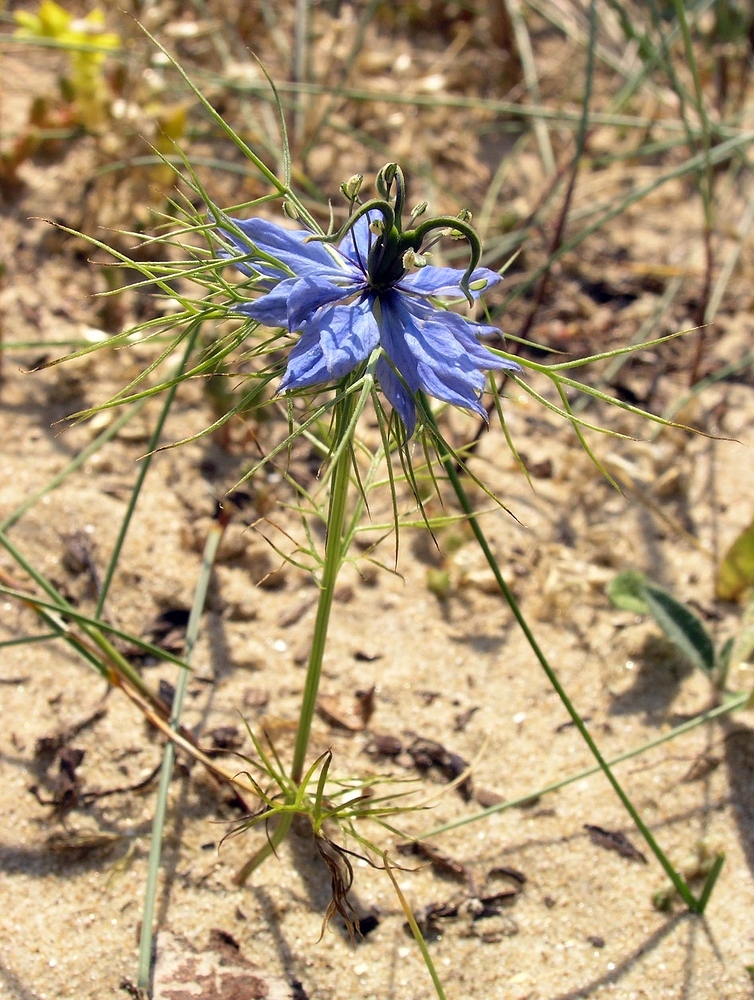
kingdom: Plantae
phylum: Tracheophyta
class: Magnoliopsida
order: Ranunculales
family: Ranunculaceae
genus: Nigella
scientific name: Nigella damascena
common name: Love-in-a-mist
